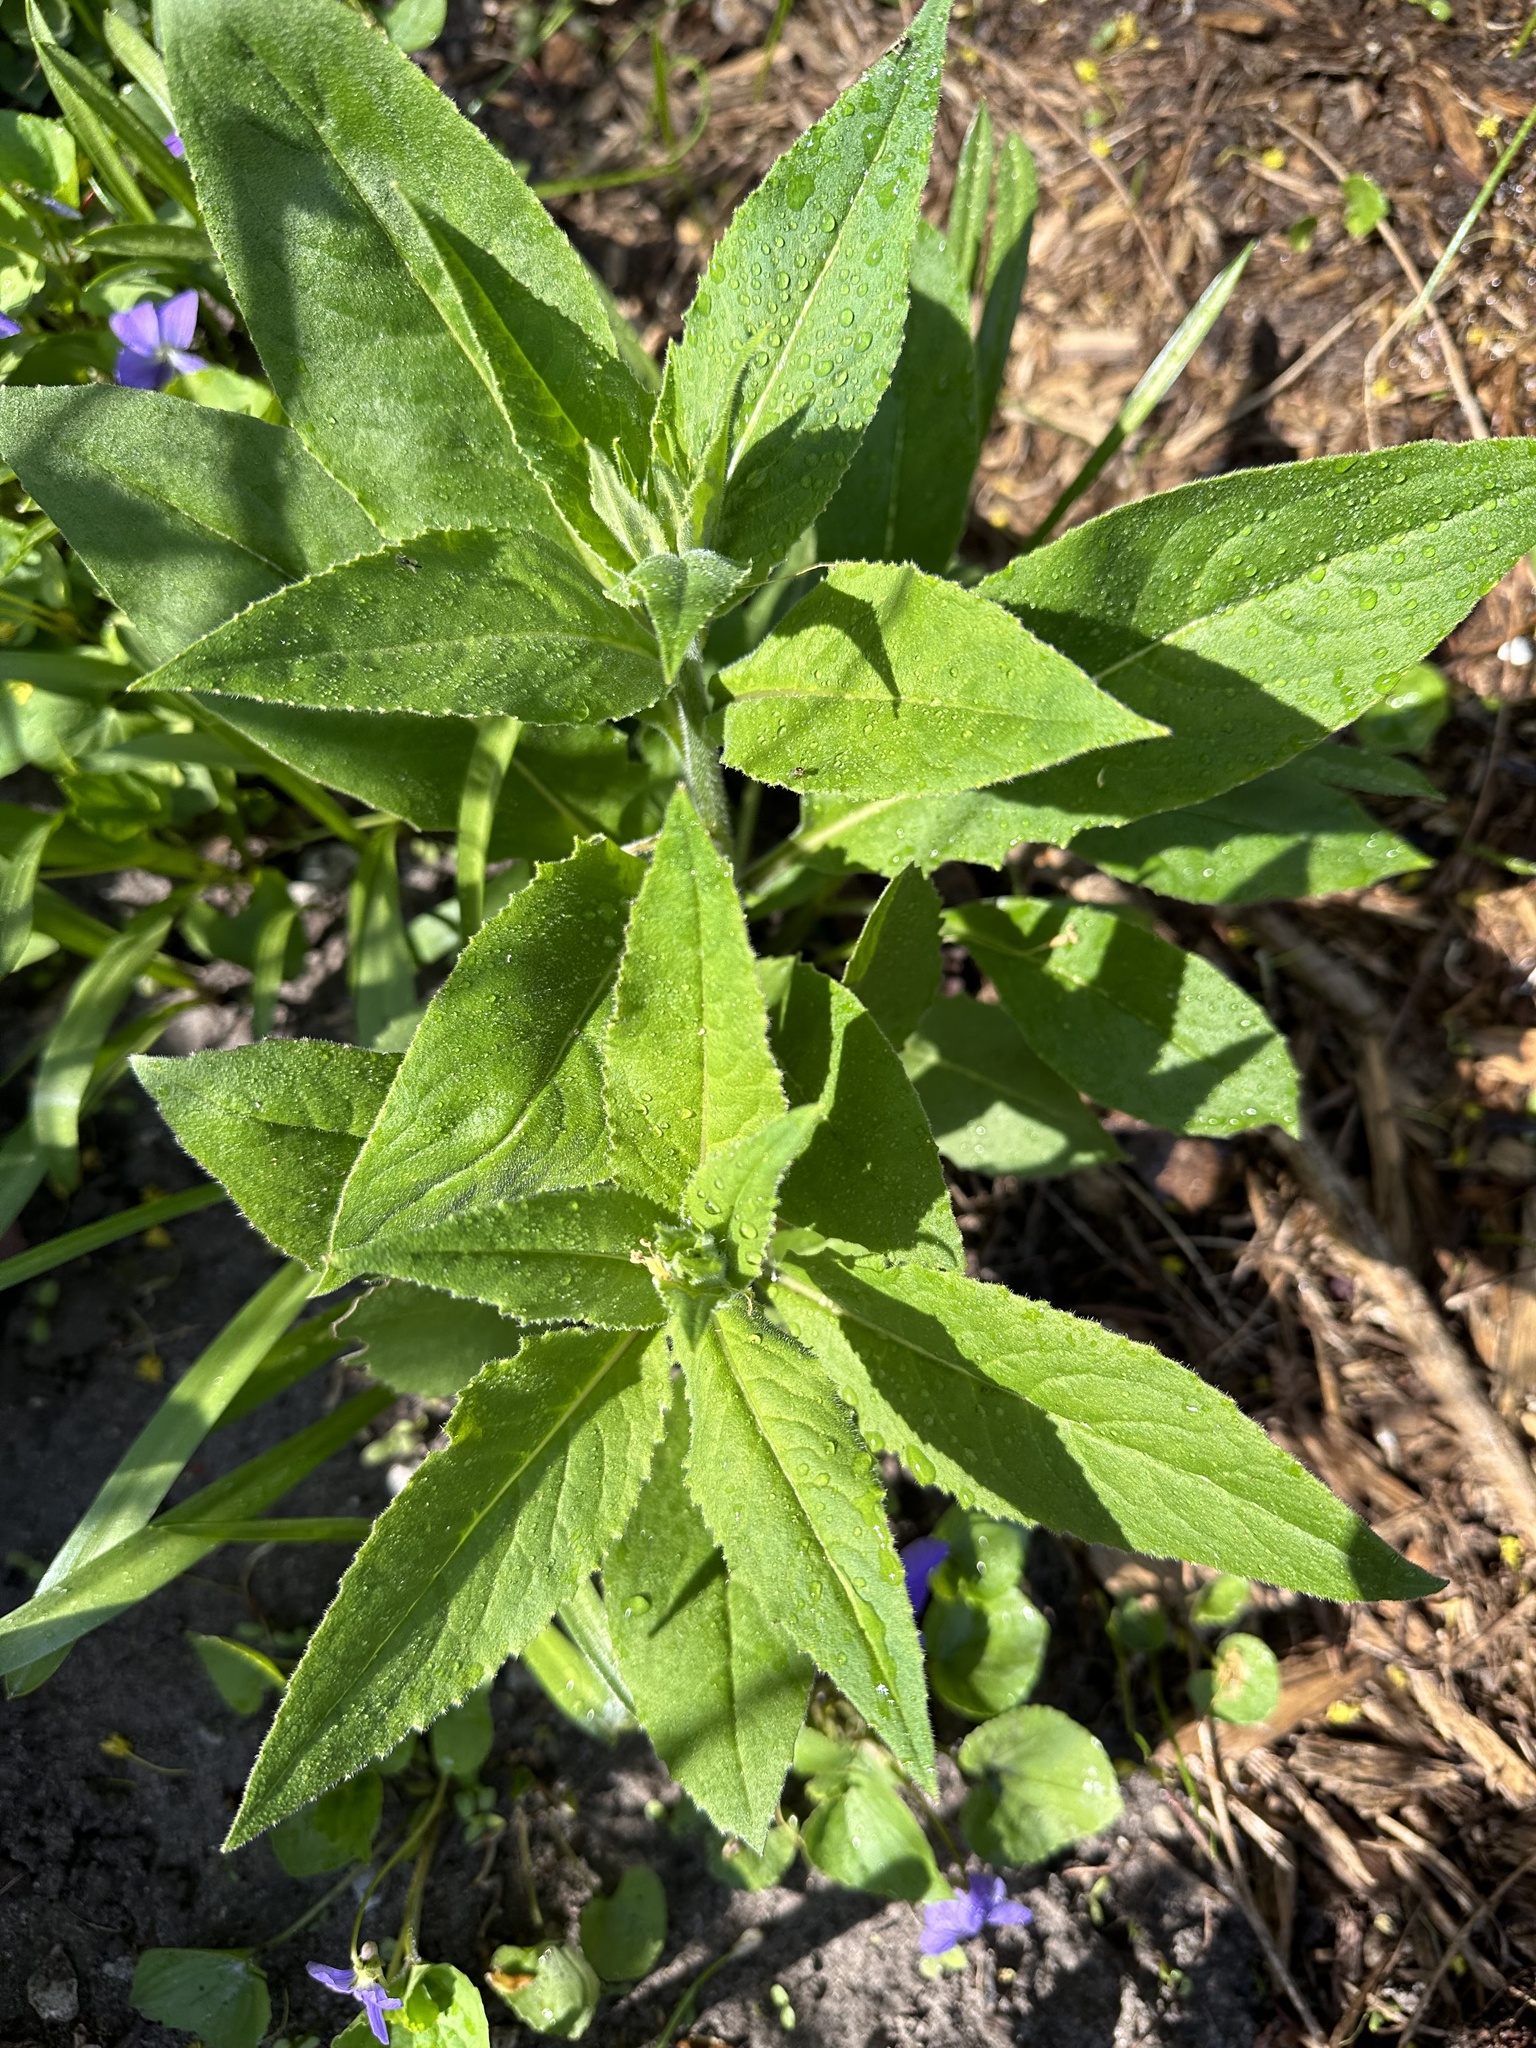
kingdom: Plantae
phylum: Tracheophyta
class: Magnoliopsida
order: Brassicales
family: Brassicaceae
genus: Hesperis
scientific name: Hesperis matronalis
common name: Dame's-violet
